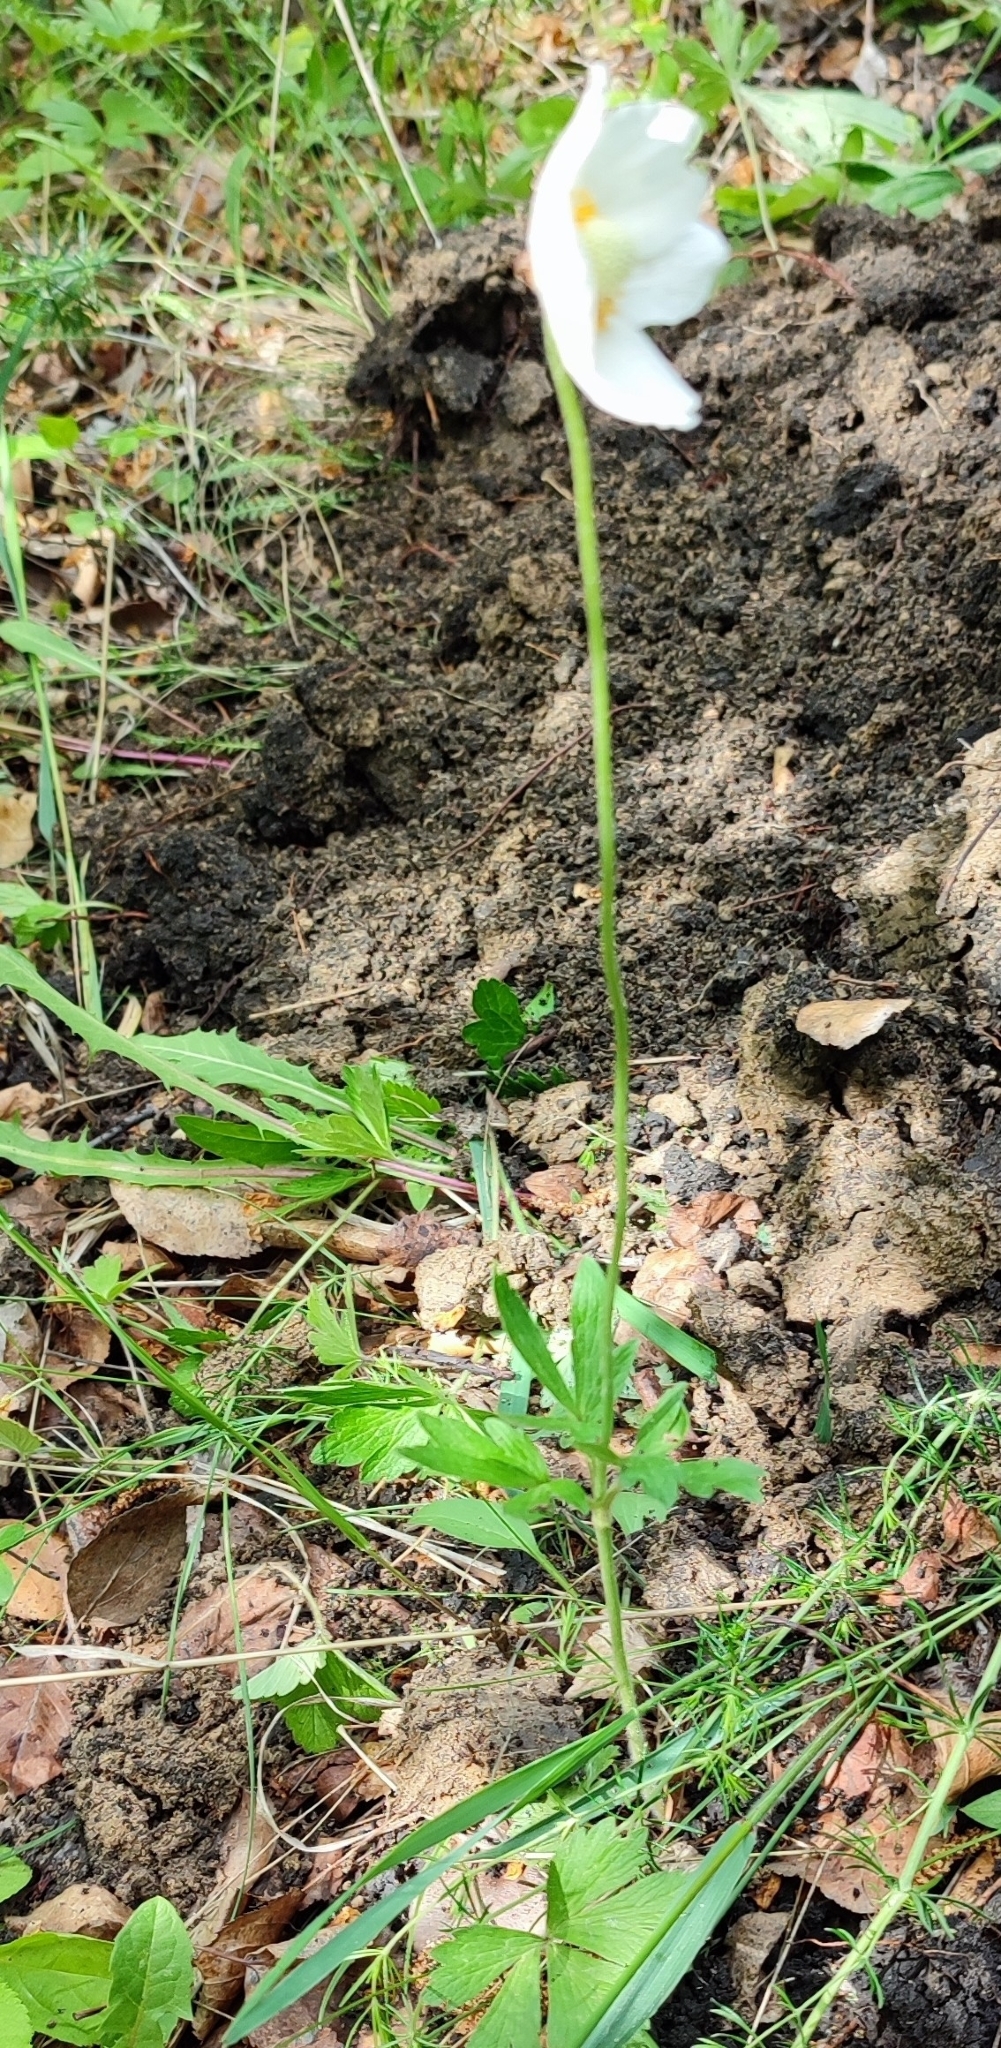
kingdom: Plantae
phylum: Tracheophyta
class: Magnoliopsida
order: Ranunculales
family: Ranunculaceae
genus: Anemone
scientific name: Anemone sylvestris
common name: Snowdrop anemone
